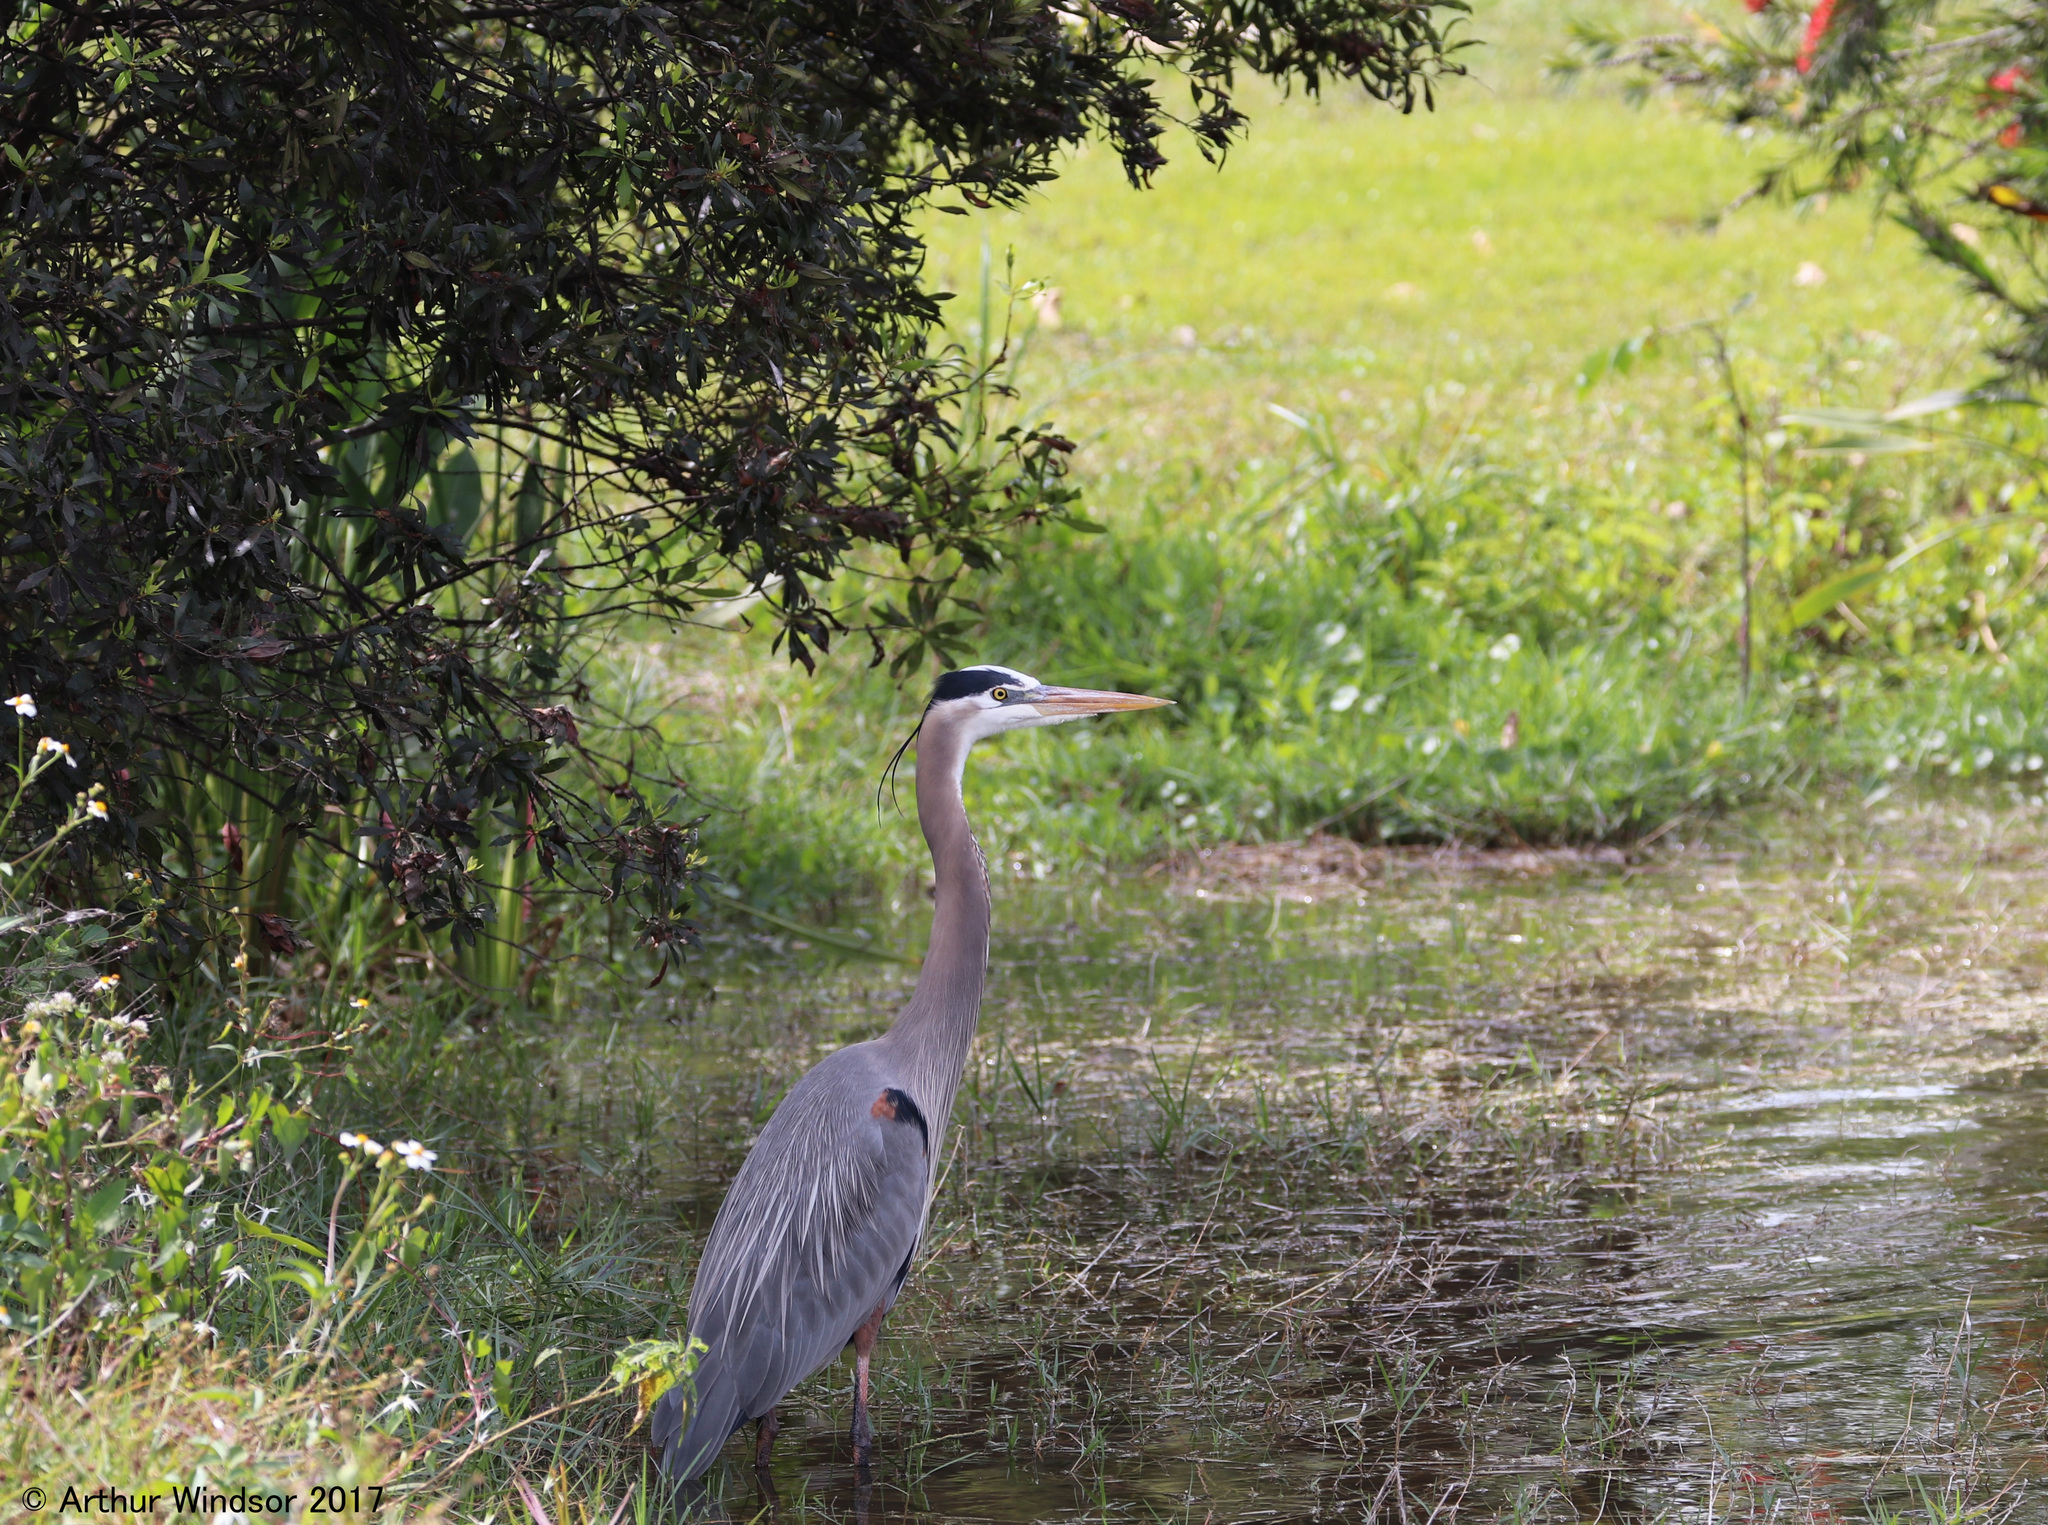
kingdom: Animalia
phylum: Chordata
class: Aves
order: Pelecaniformes
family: Ardeidae
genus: Ardea
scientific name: Ardea herodias
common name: Great blue heron
